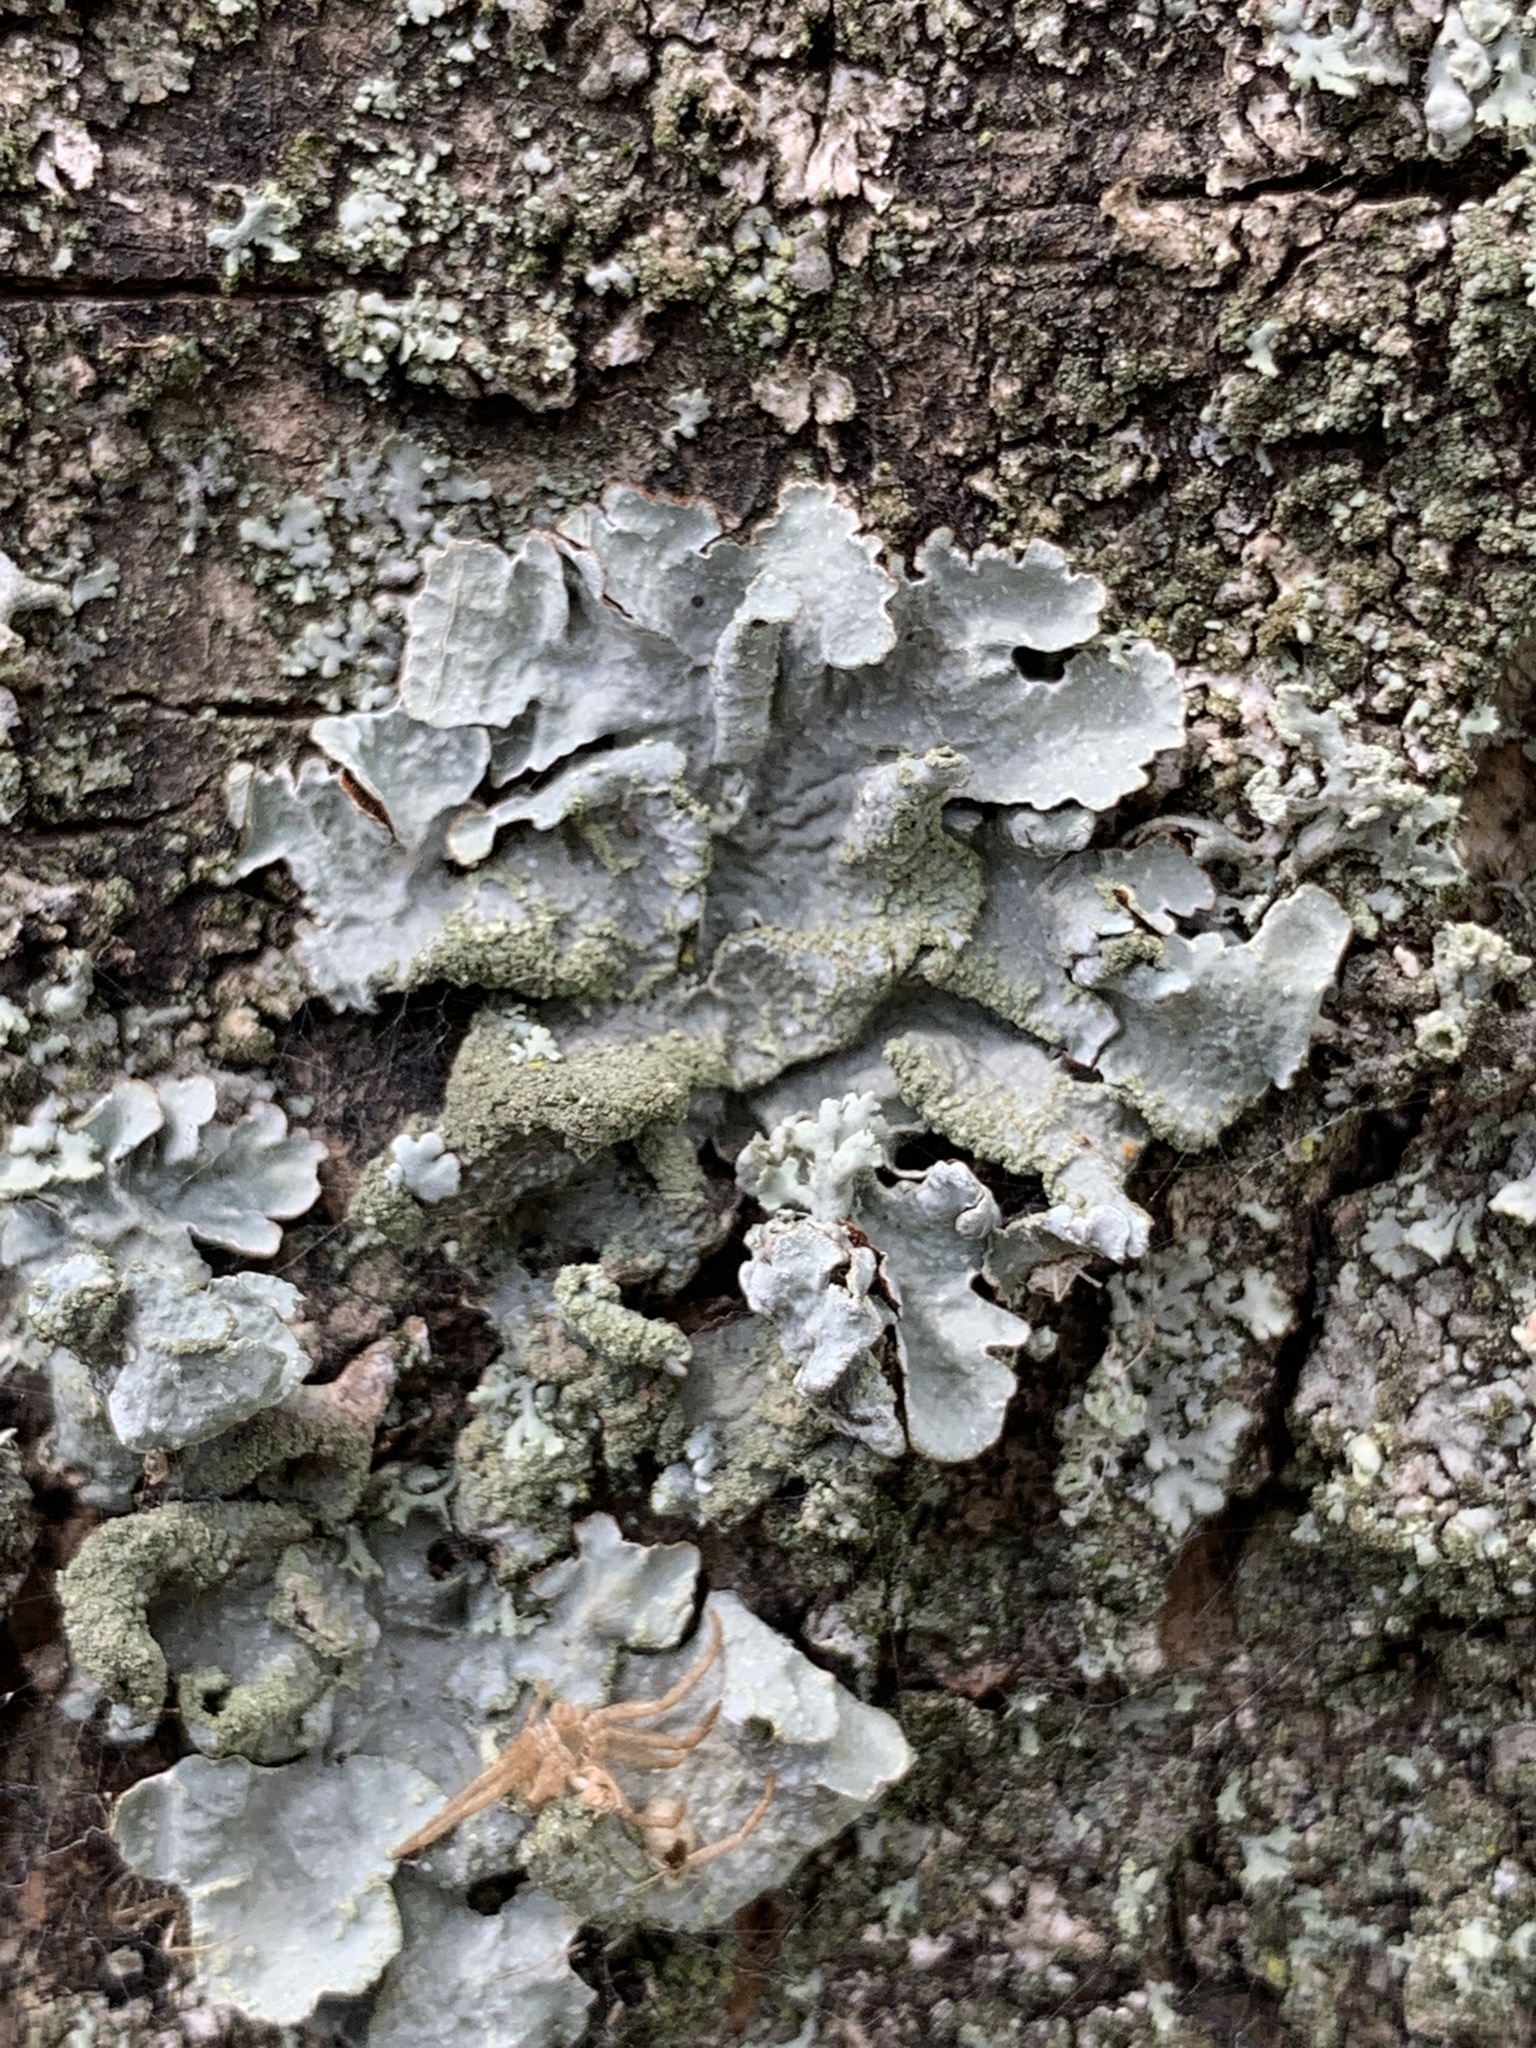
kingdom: Fungi
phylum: Ascomycota
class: Lecanoromycetes
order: Lecanorales
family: Parmeliaceae
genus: Parmelia
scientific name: Parmelia sulcata
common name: Netted shield lichen
